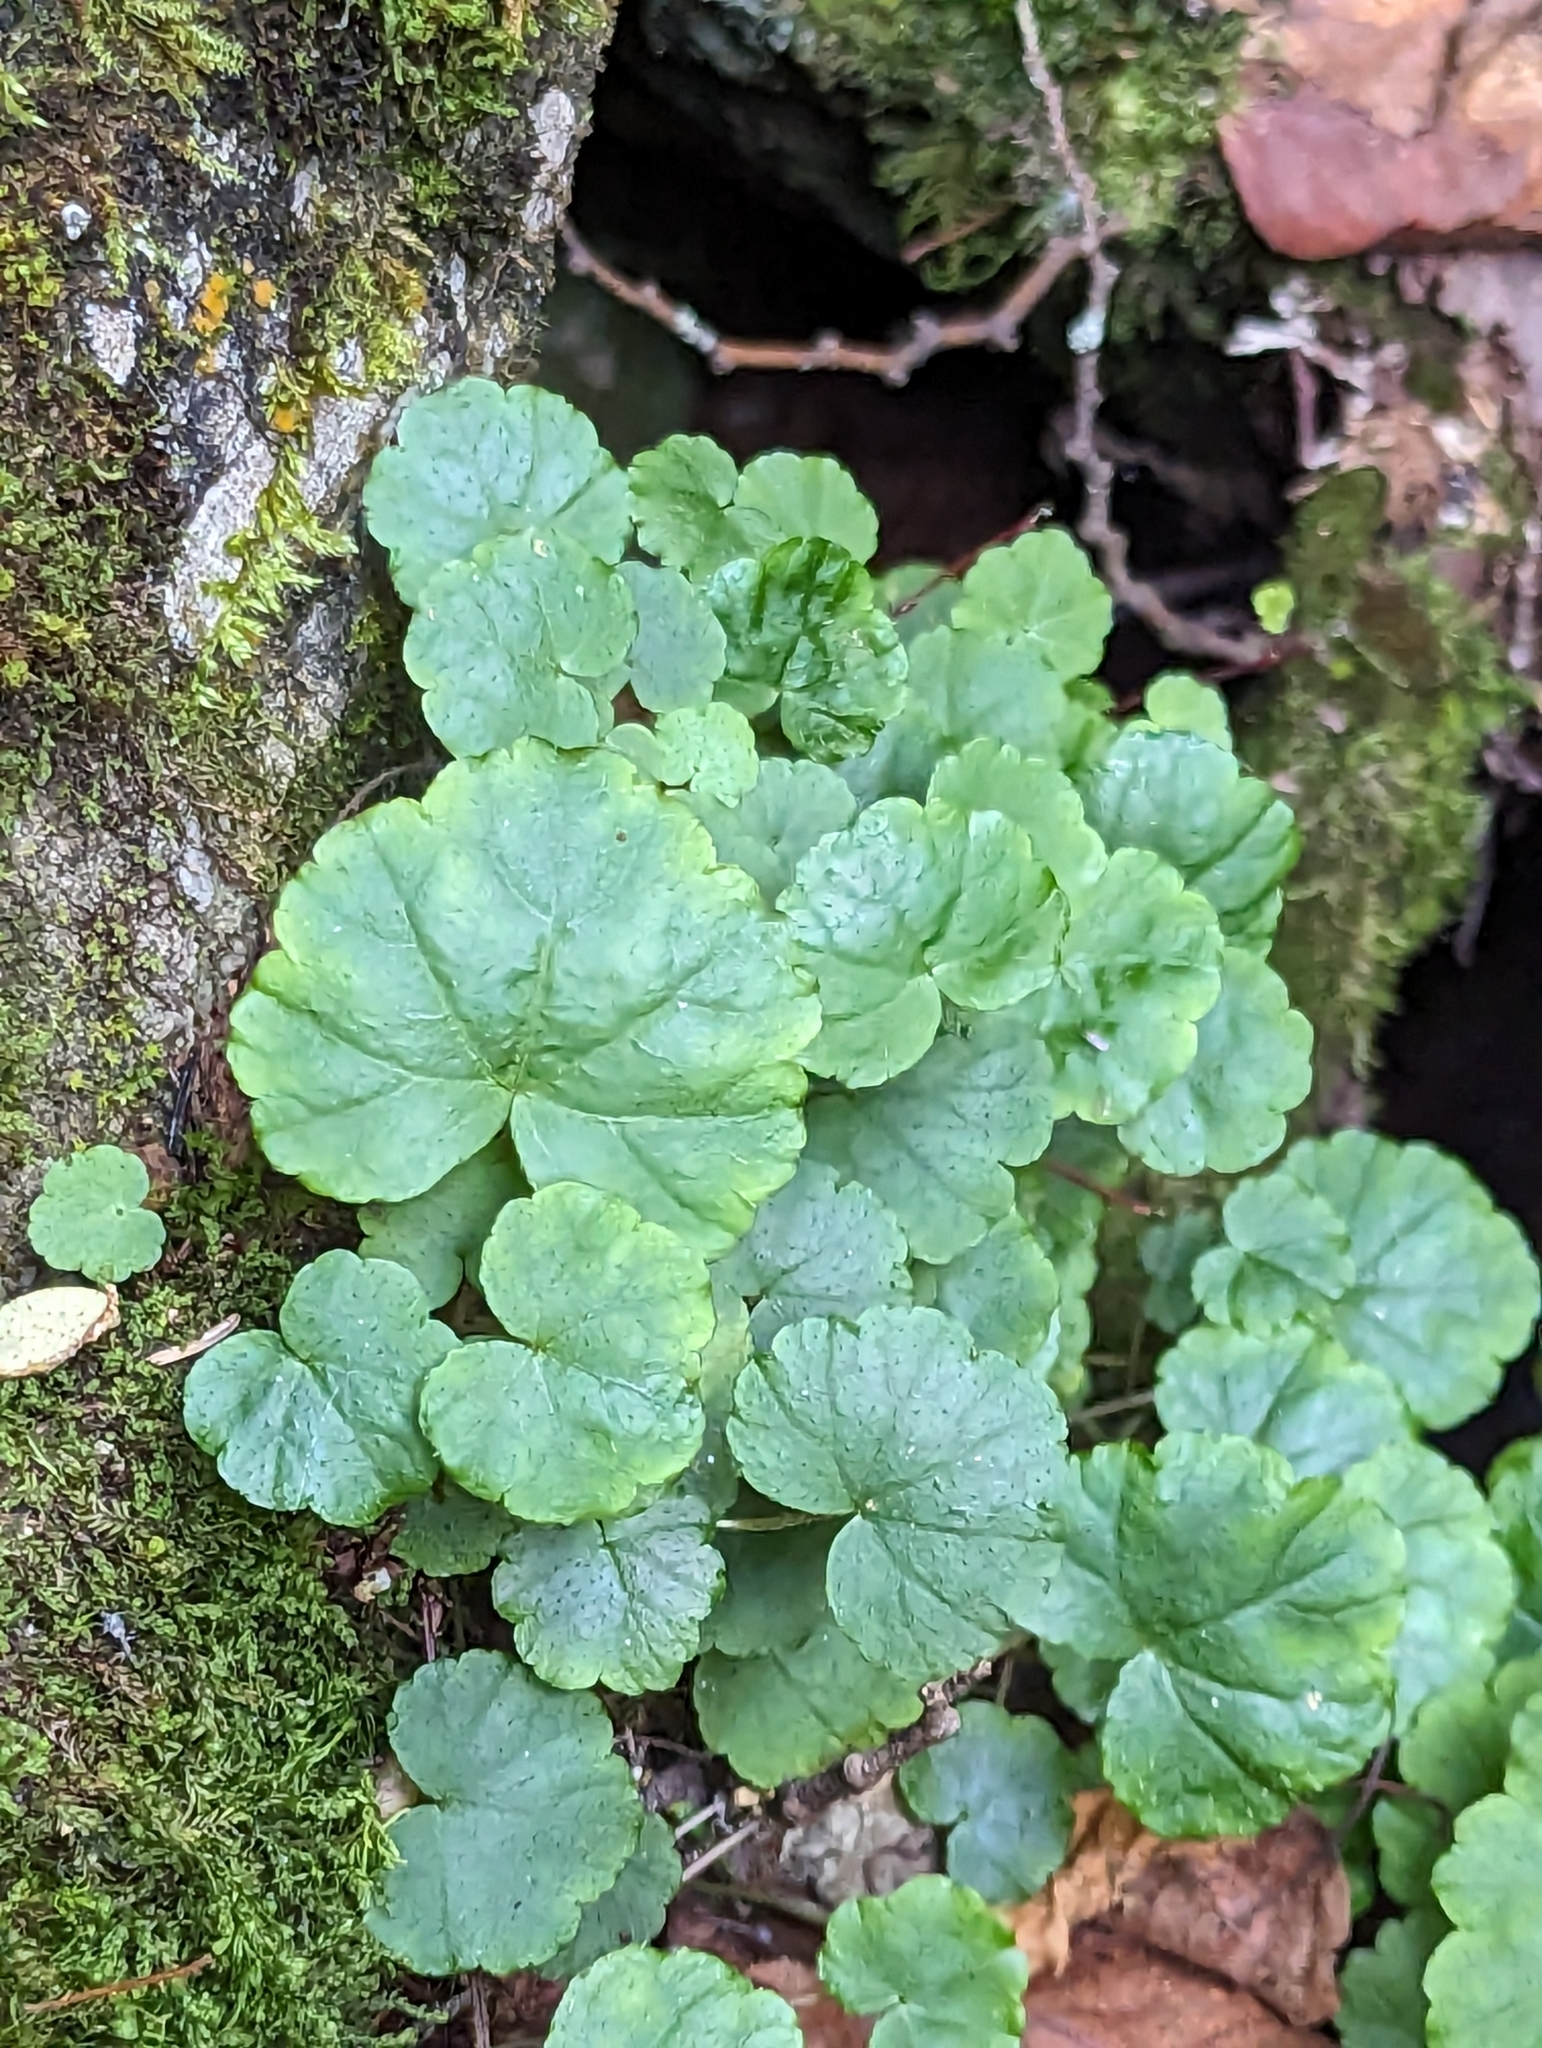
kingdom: Plantae
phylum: Tracheophyta
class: Magnoliopsida
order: Saxifragales
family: Saxifragaceae
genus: Mitella
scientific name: Mitella nuda
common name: Bare-stemmed bishop's-cap
